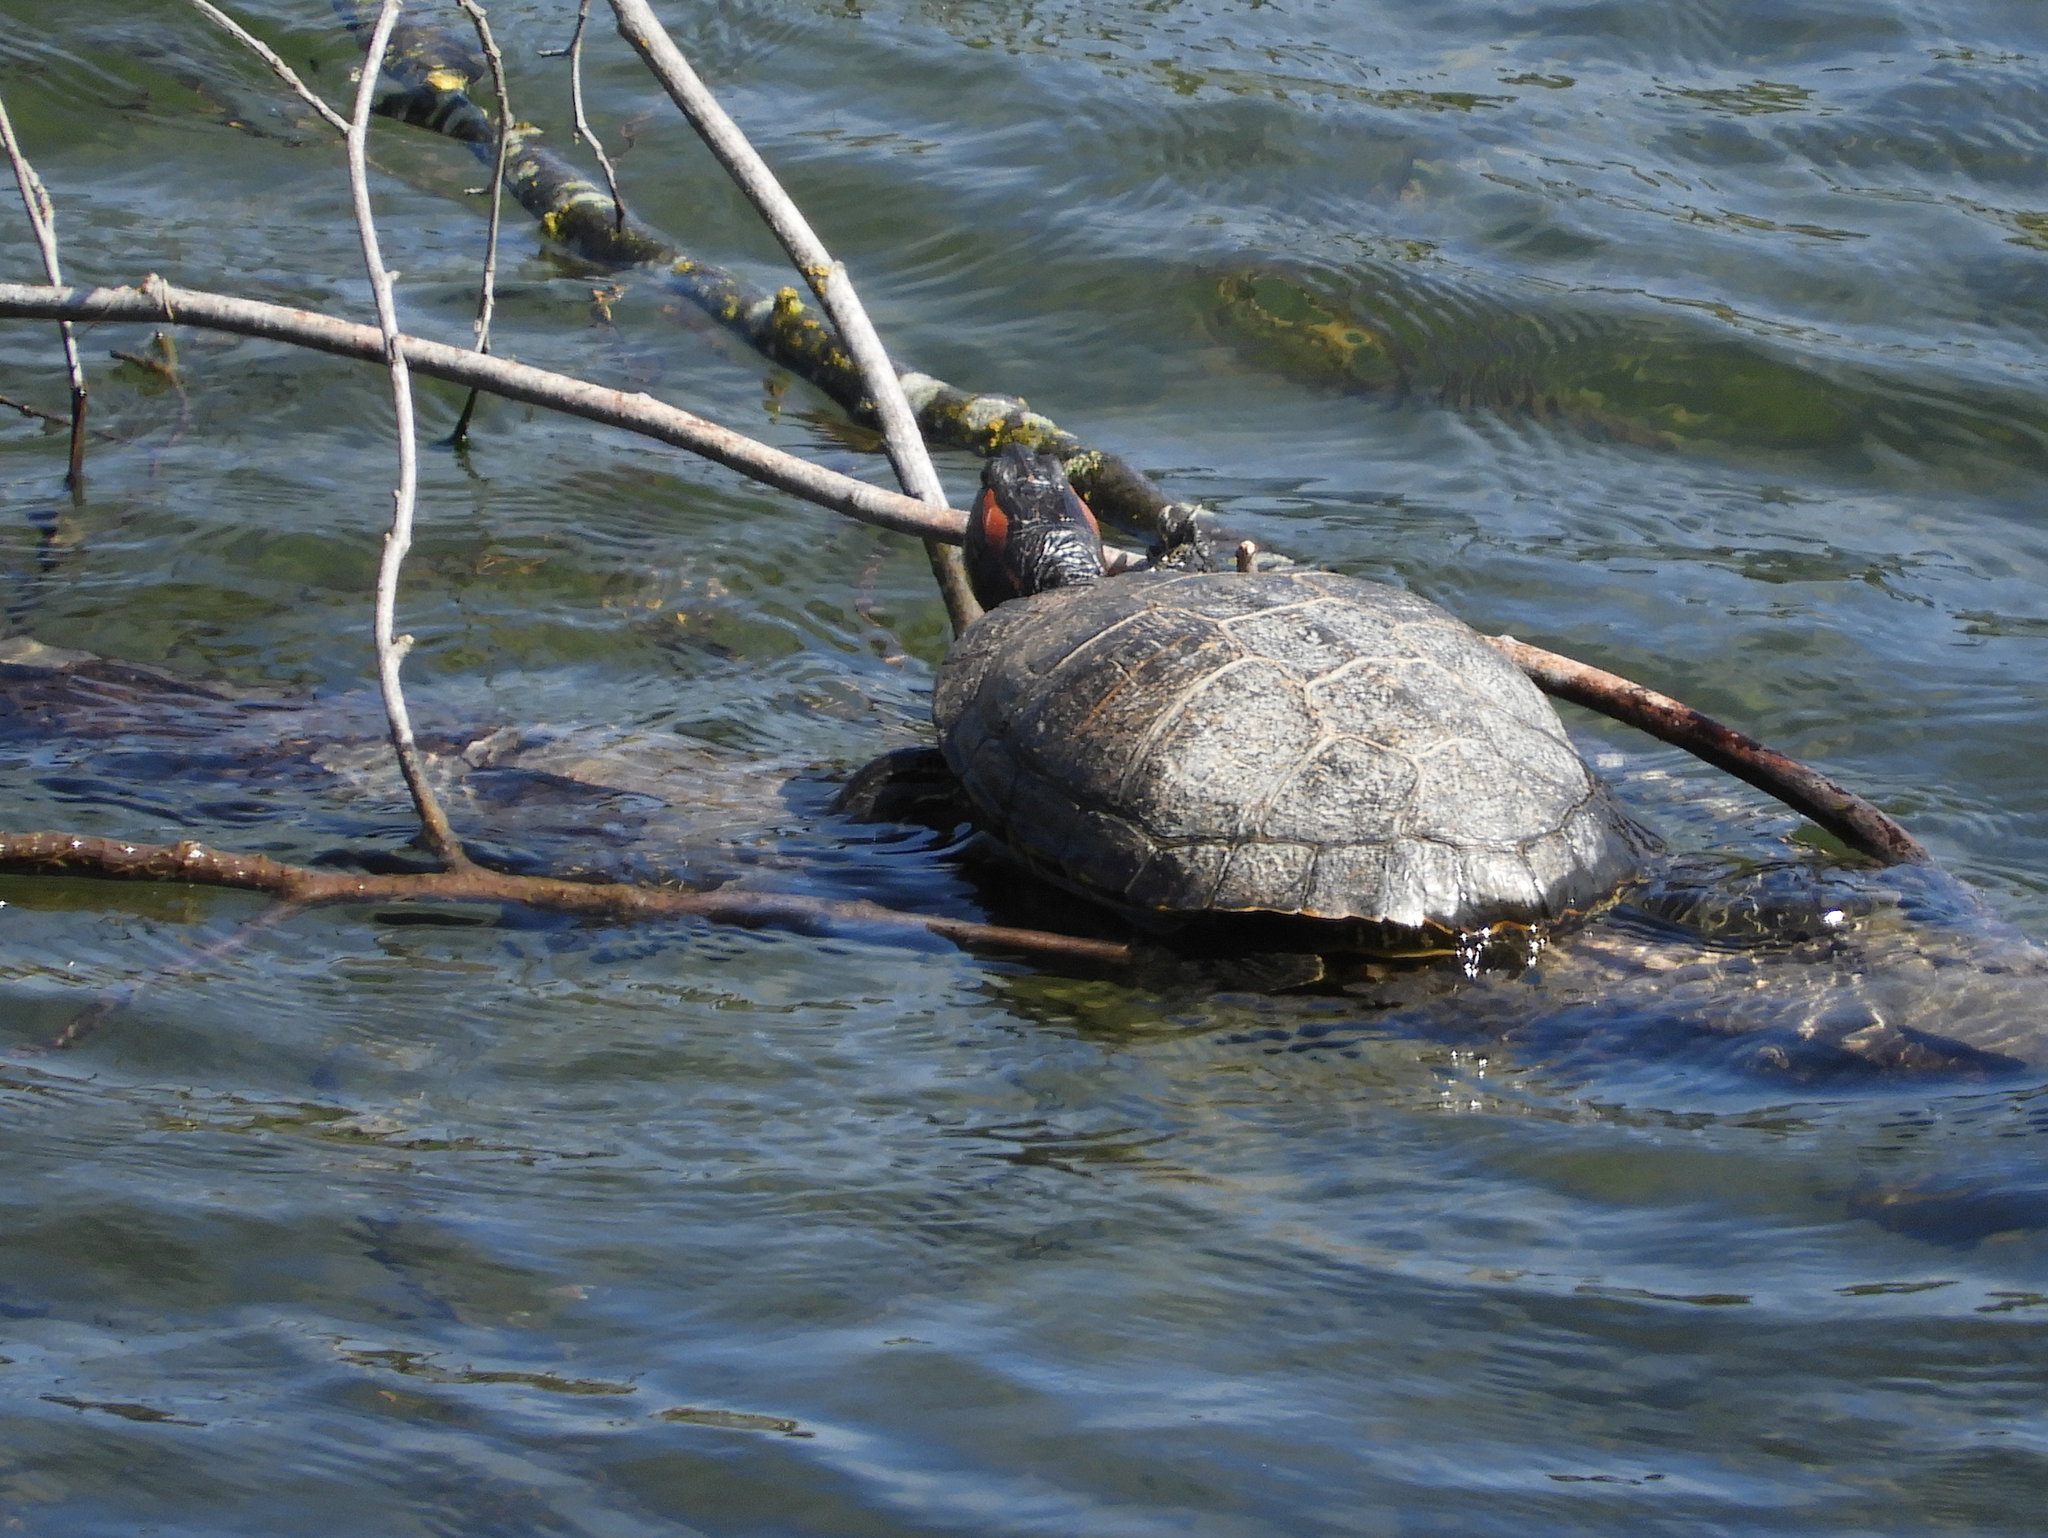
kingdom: Animalia
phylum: Chordata
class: Testudines
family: Emydidae
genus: Trachemys
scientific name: Trachemys scripta
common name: Slider
